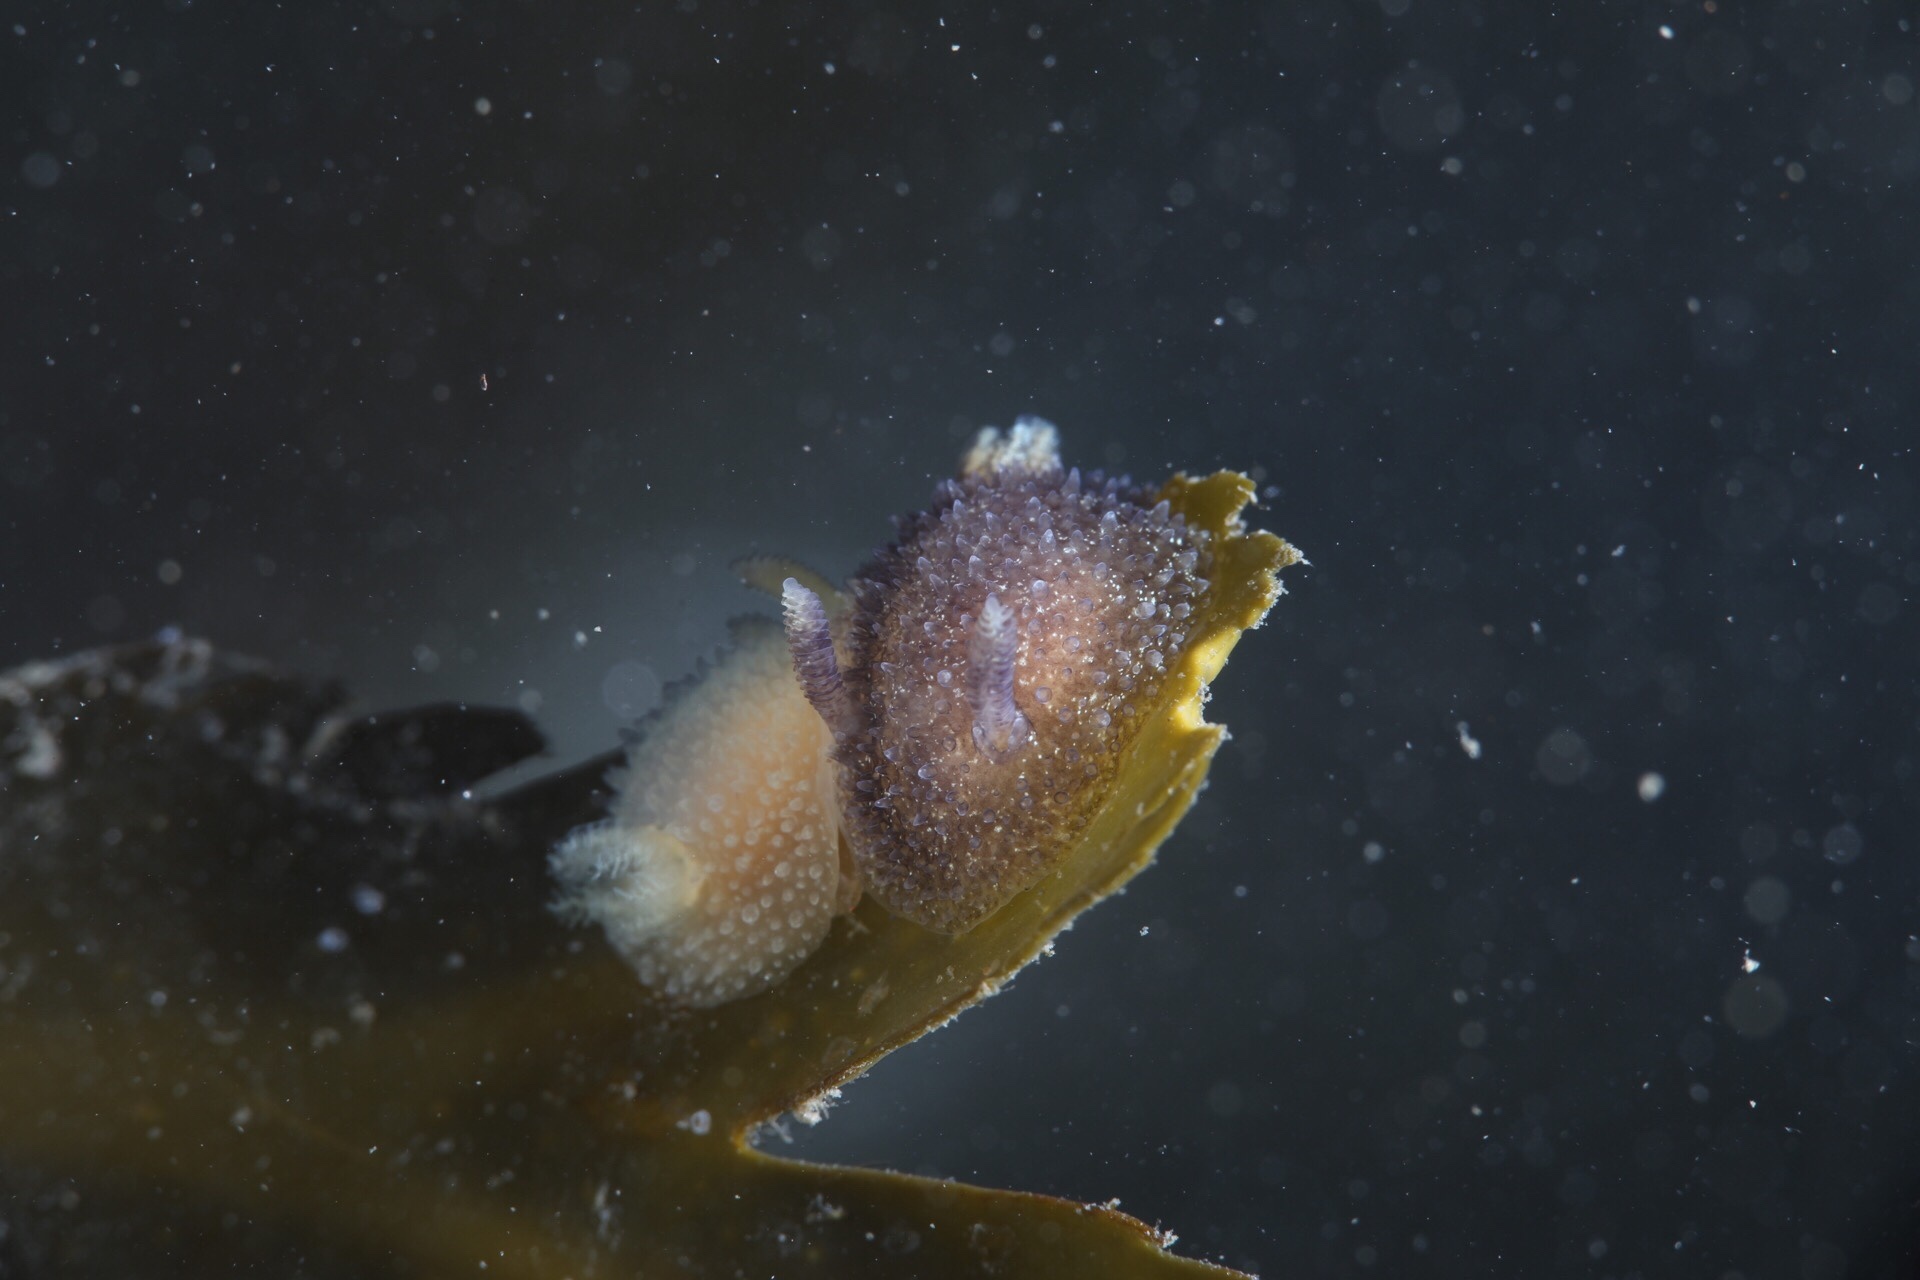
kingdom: Animalia
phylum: Mollusca
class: Gastropoda
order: Nudibranchia
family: Onchidorididae
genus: Acanthodoris
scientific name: Acanthodoris pilosa
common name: Hairy spiny doris
